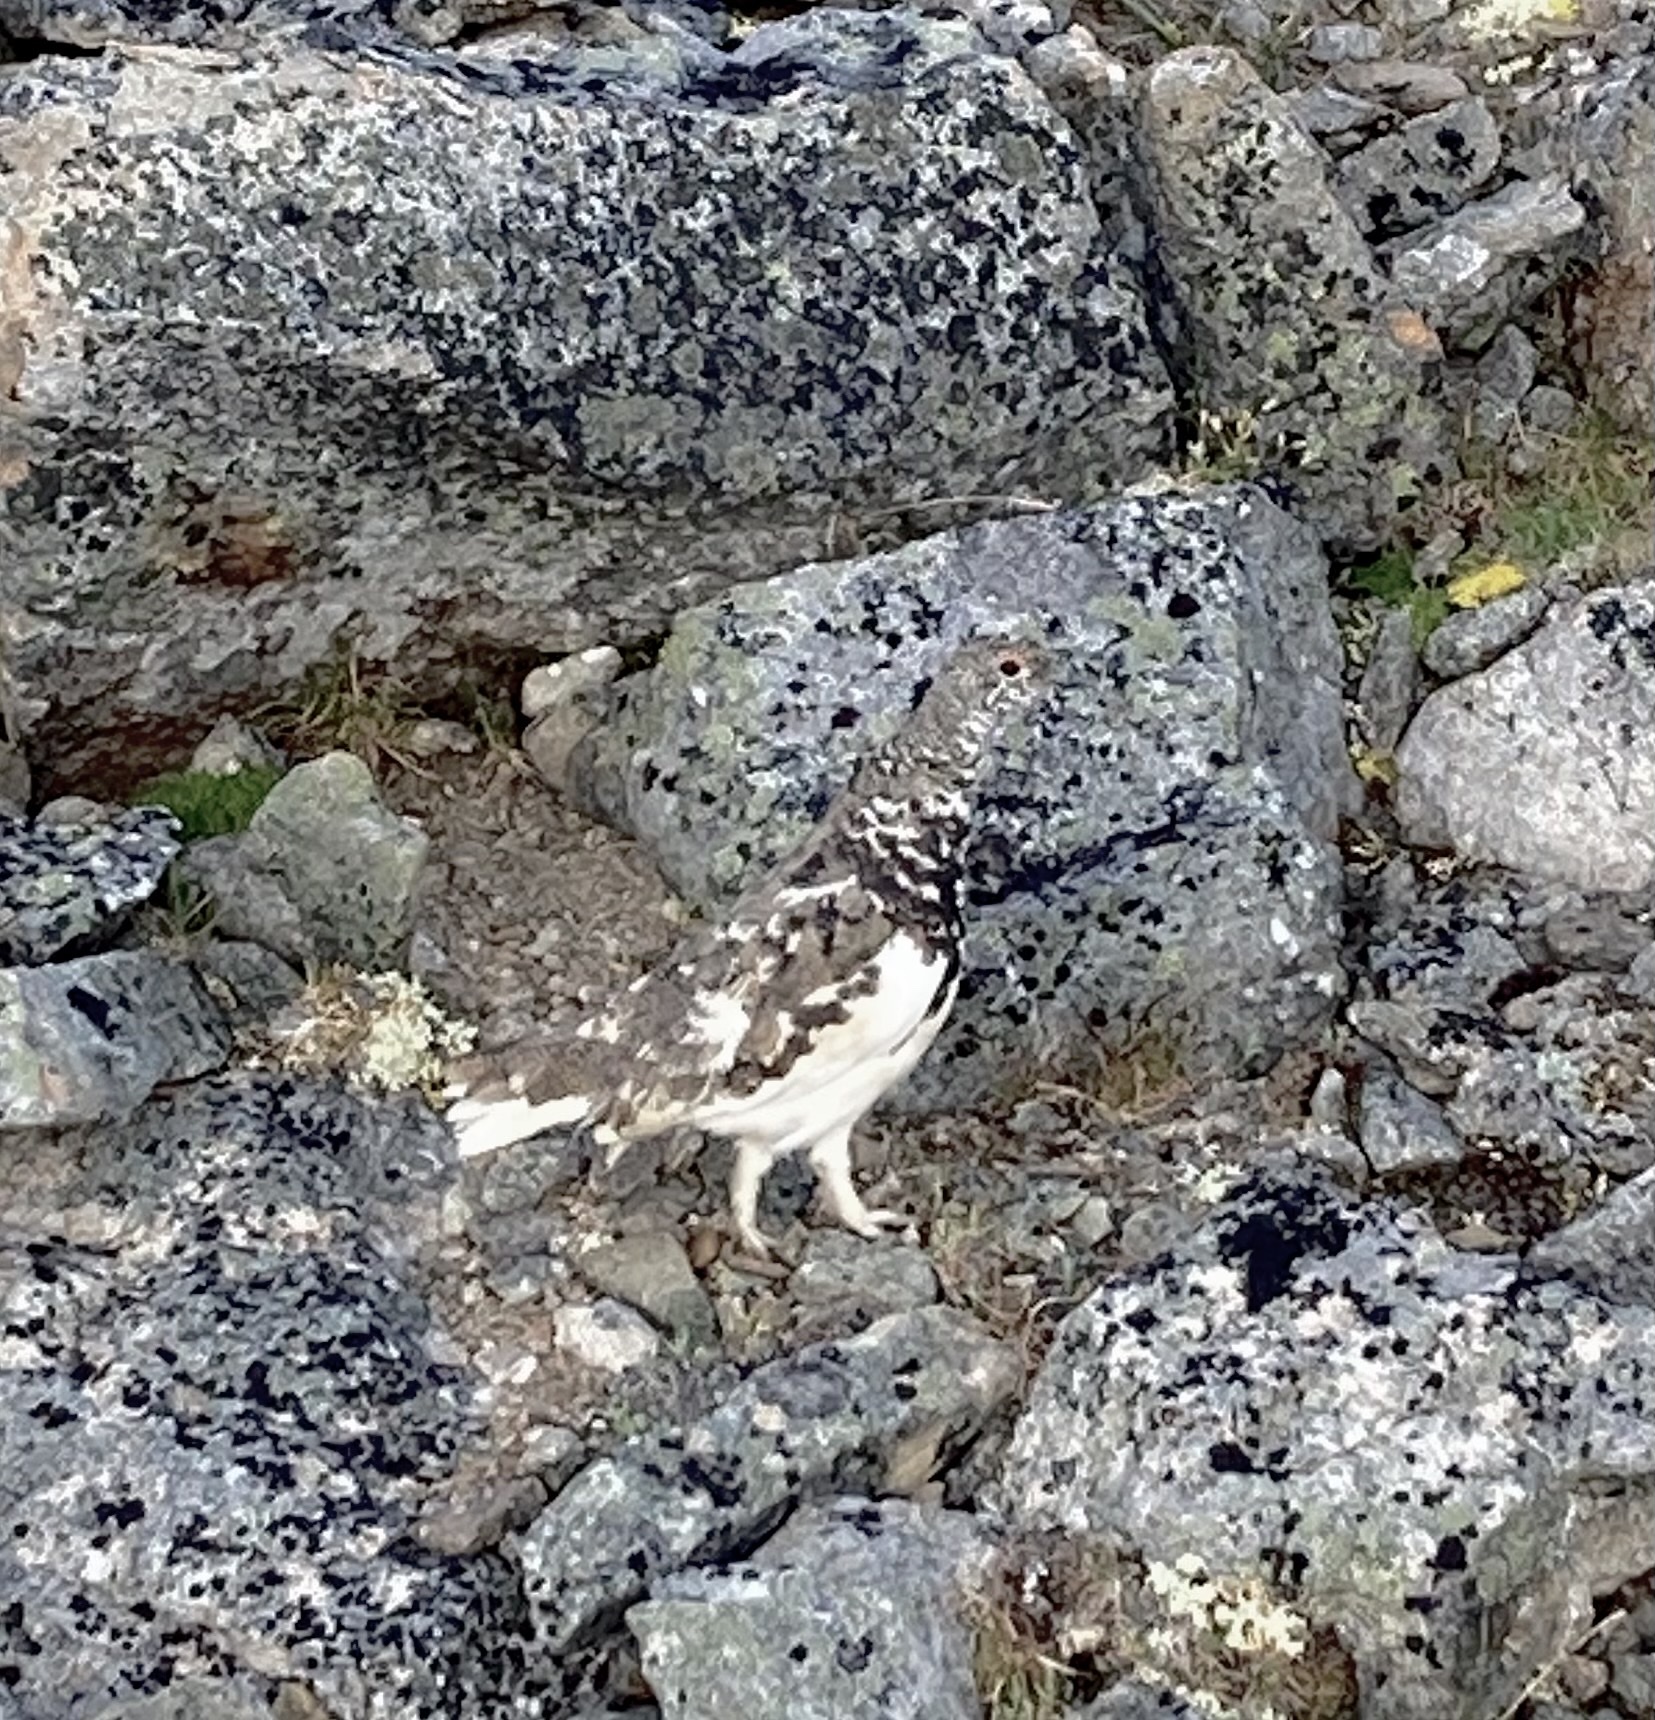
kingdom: Animalia
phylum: Chordata
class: Aves
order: Galliformes
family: Phasianidae
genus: Lagopus
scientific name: Lagopus leucura
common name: White-tailed ptarmigan
